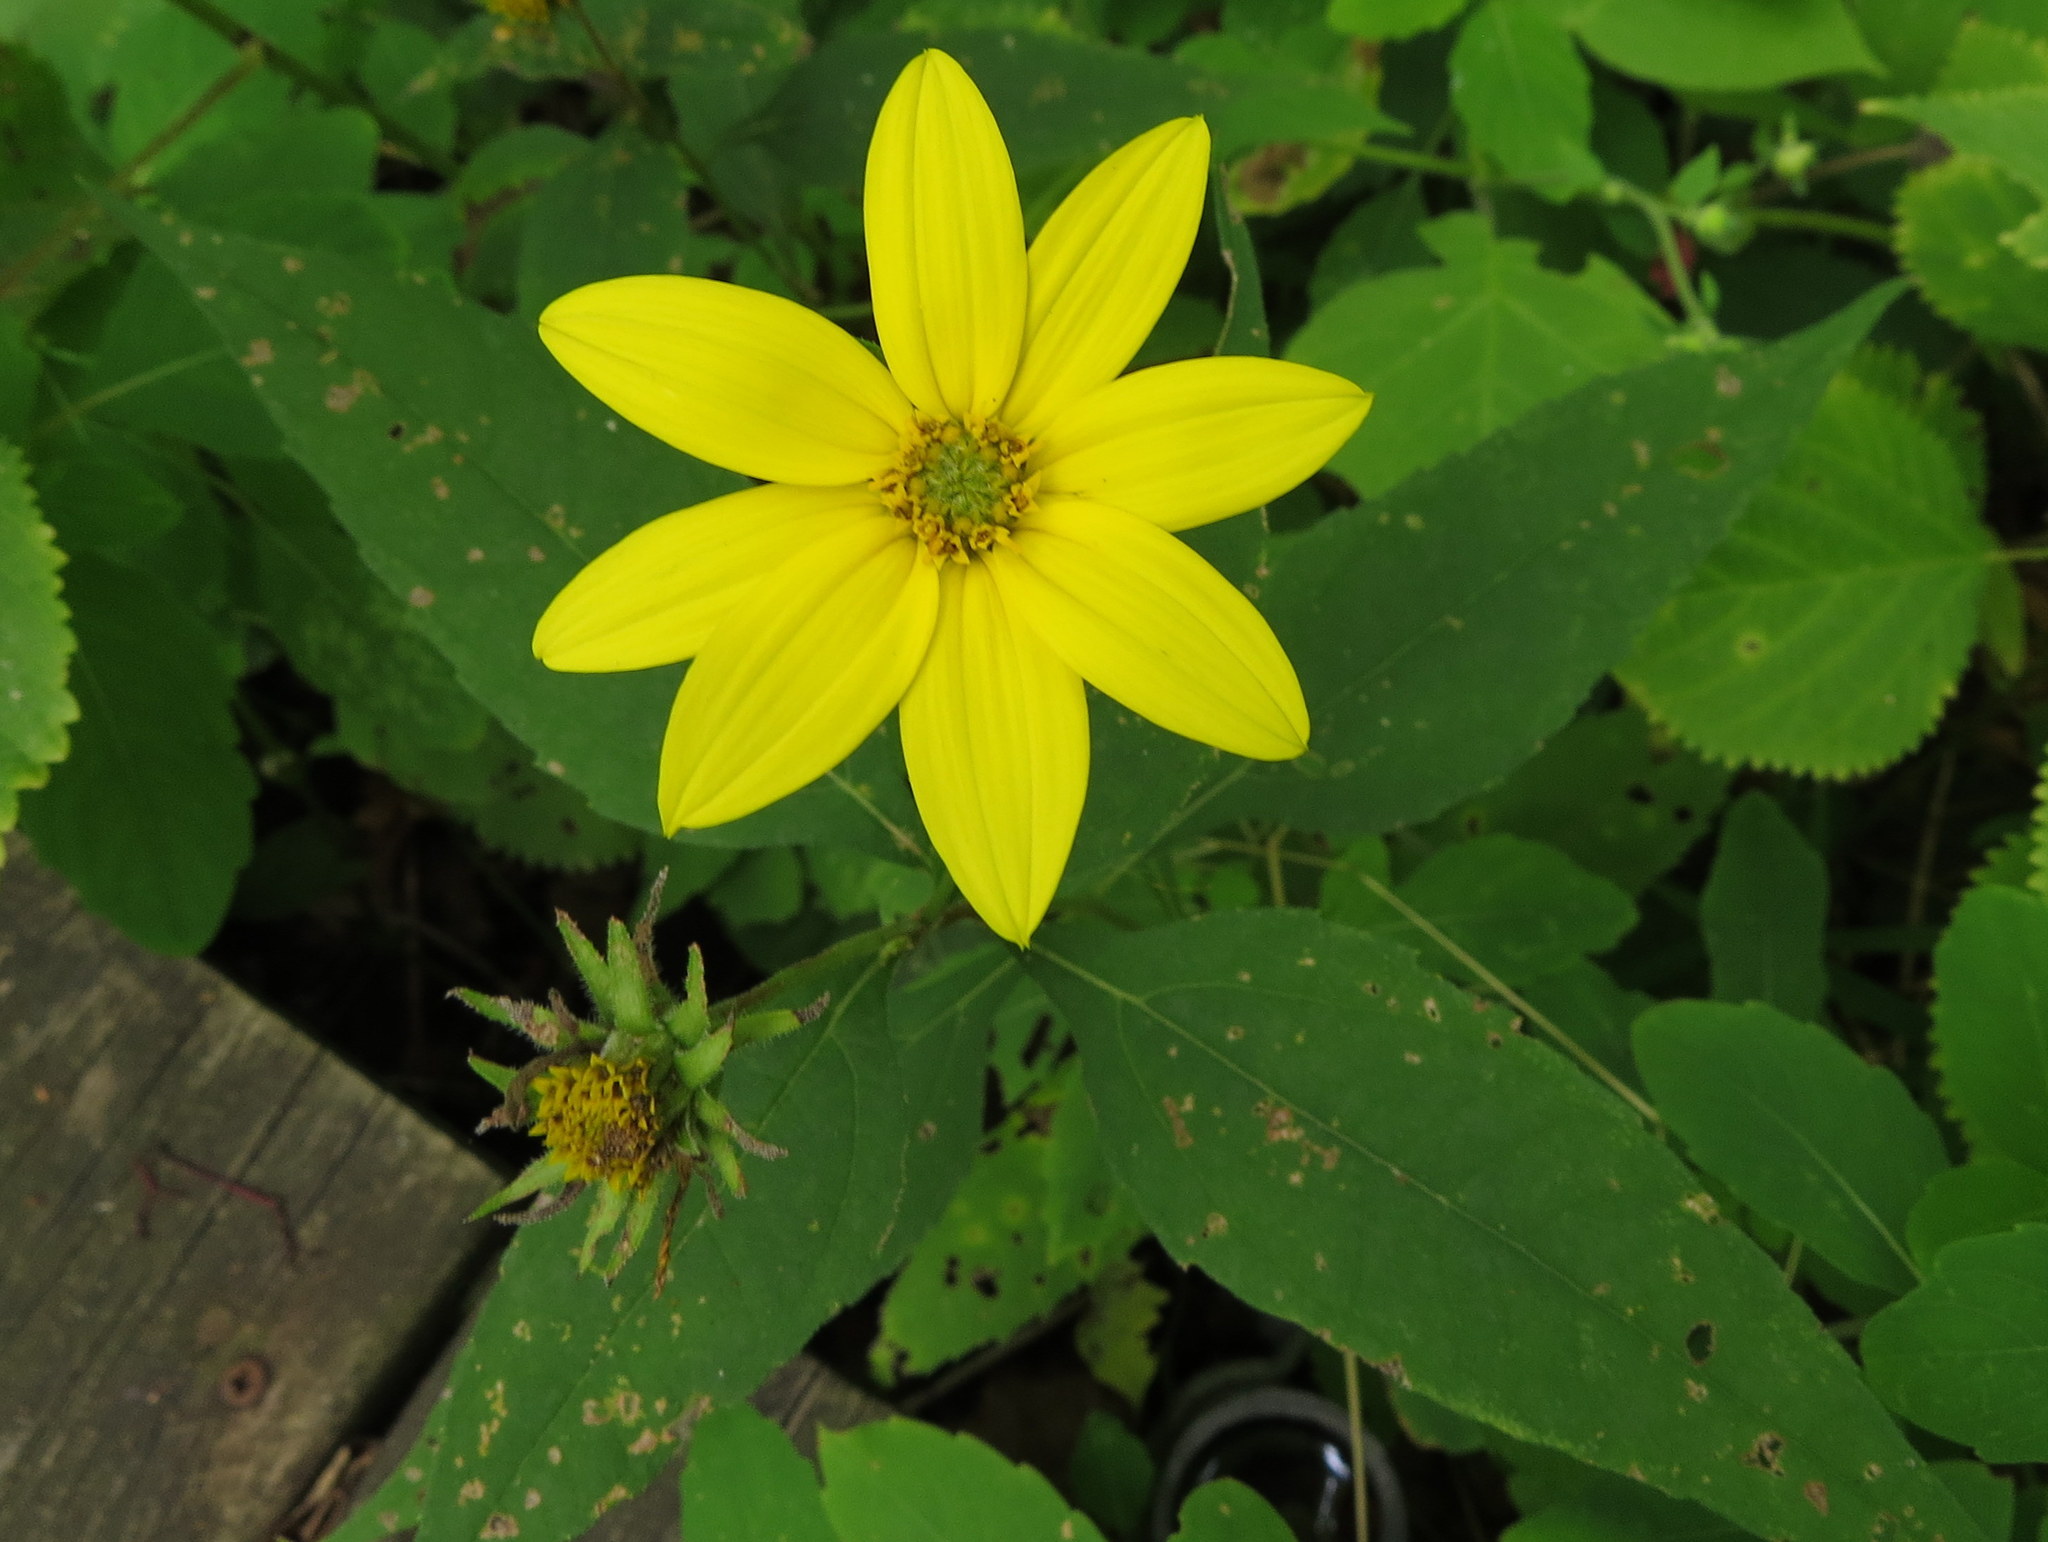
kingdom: Plantae
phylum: Tracheophyta
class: Magnoliopsida
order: Asterales
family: Asteraceae
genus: Helianthus
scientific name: Helianthus divaricatus
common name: Divergent sunflower
